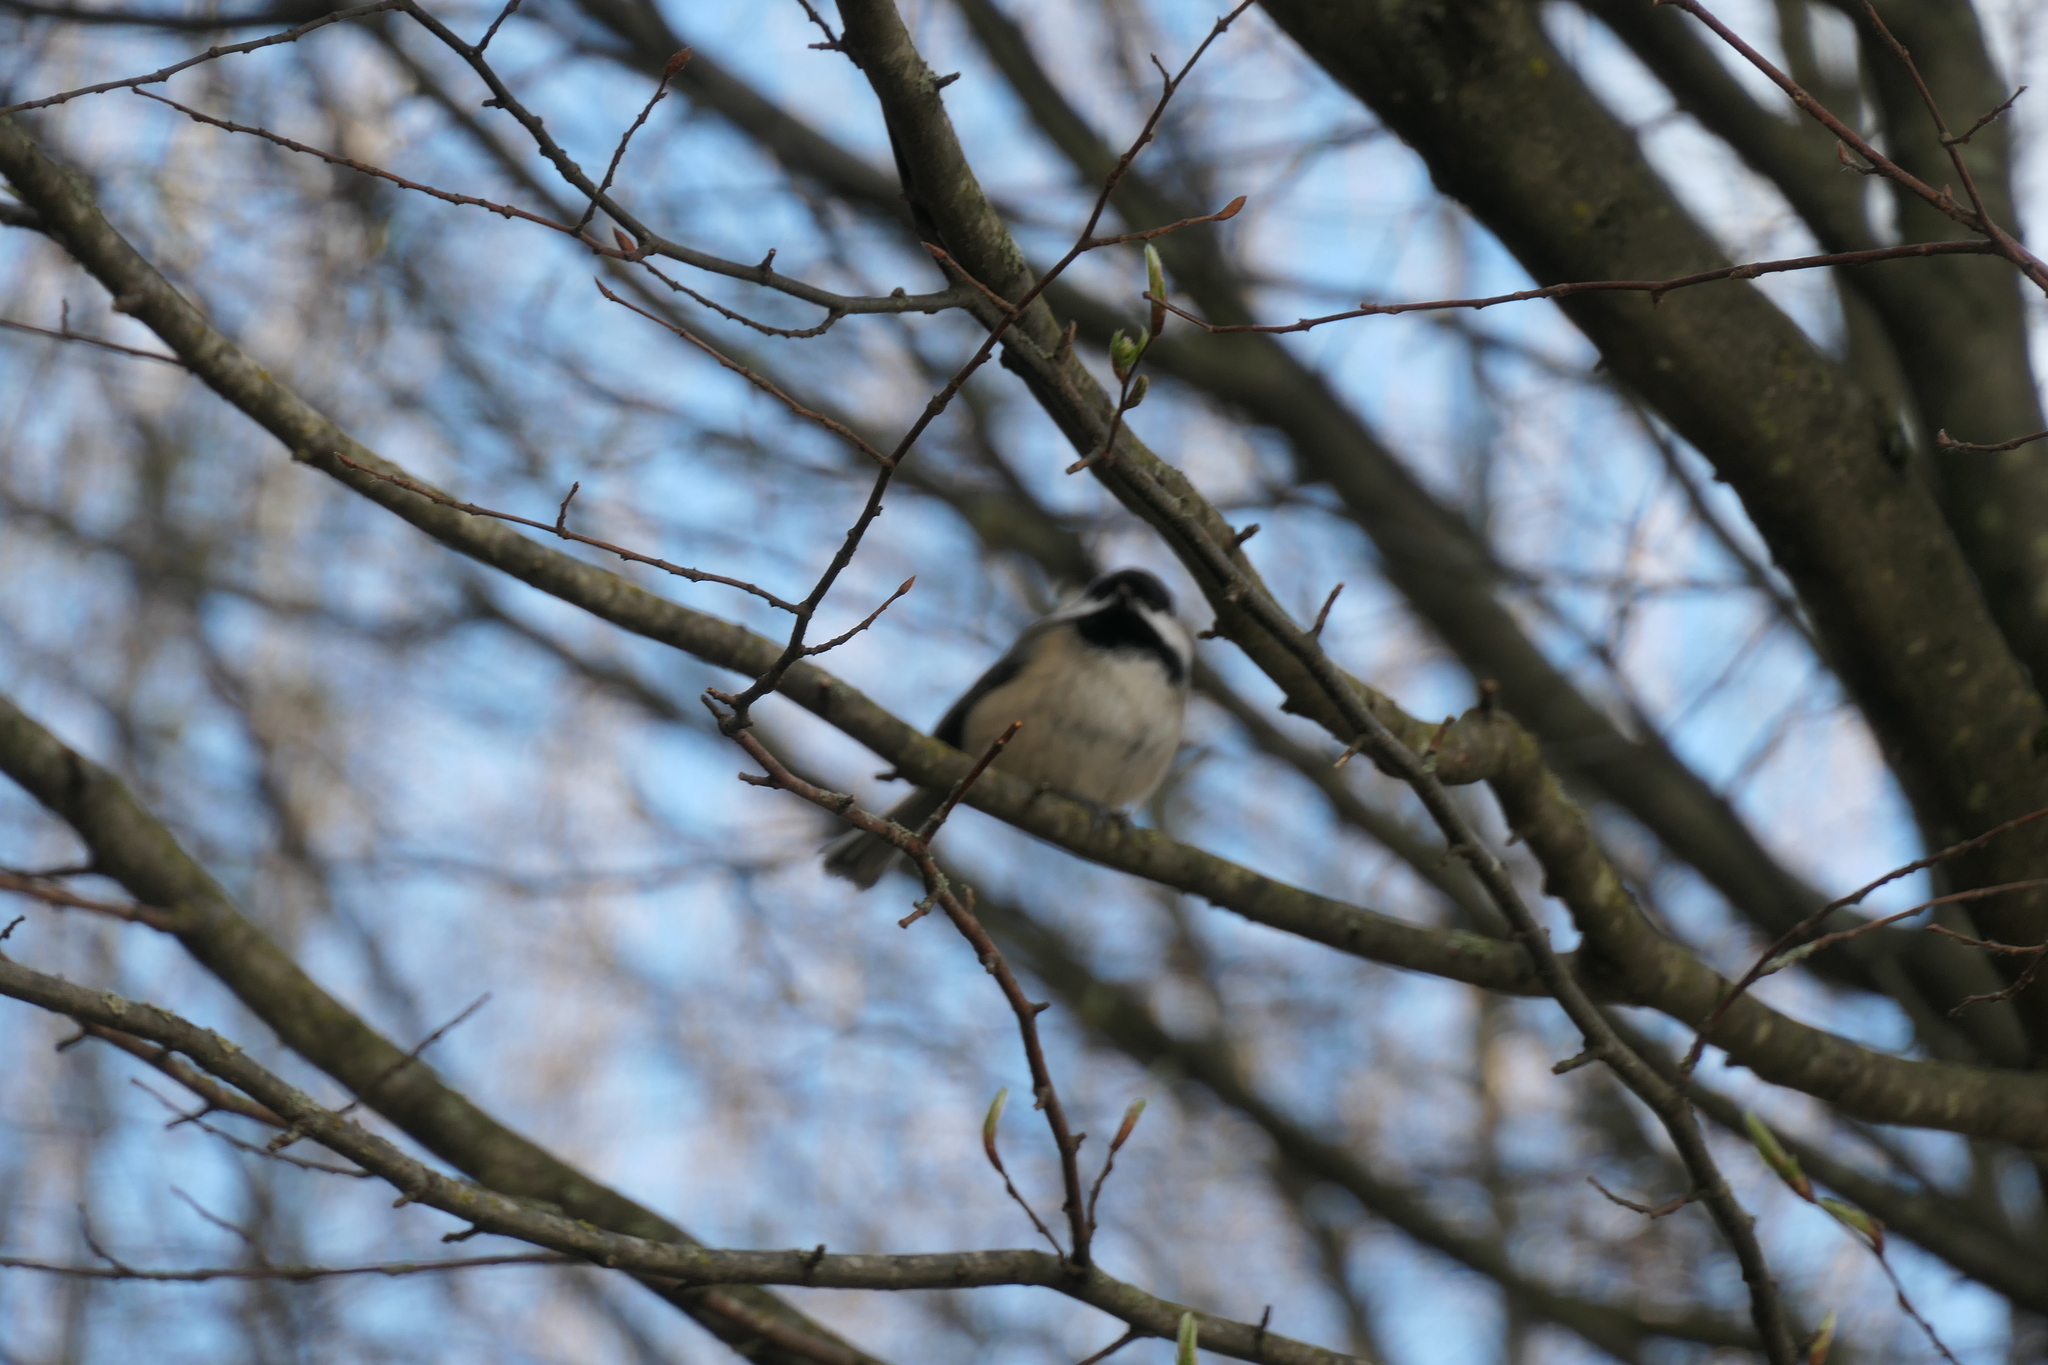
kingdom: Animalia
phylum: Chordata
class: Aves
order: Passeriformes
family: Paridae
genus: Poecile
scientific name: Poecile atricapillus
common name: Black-capped chickadee
